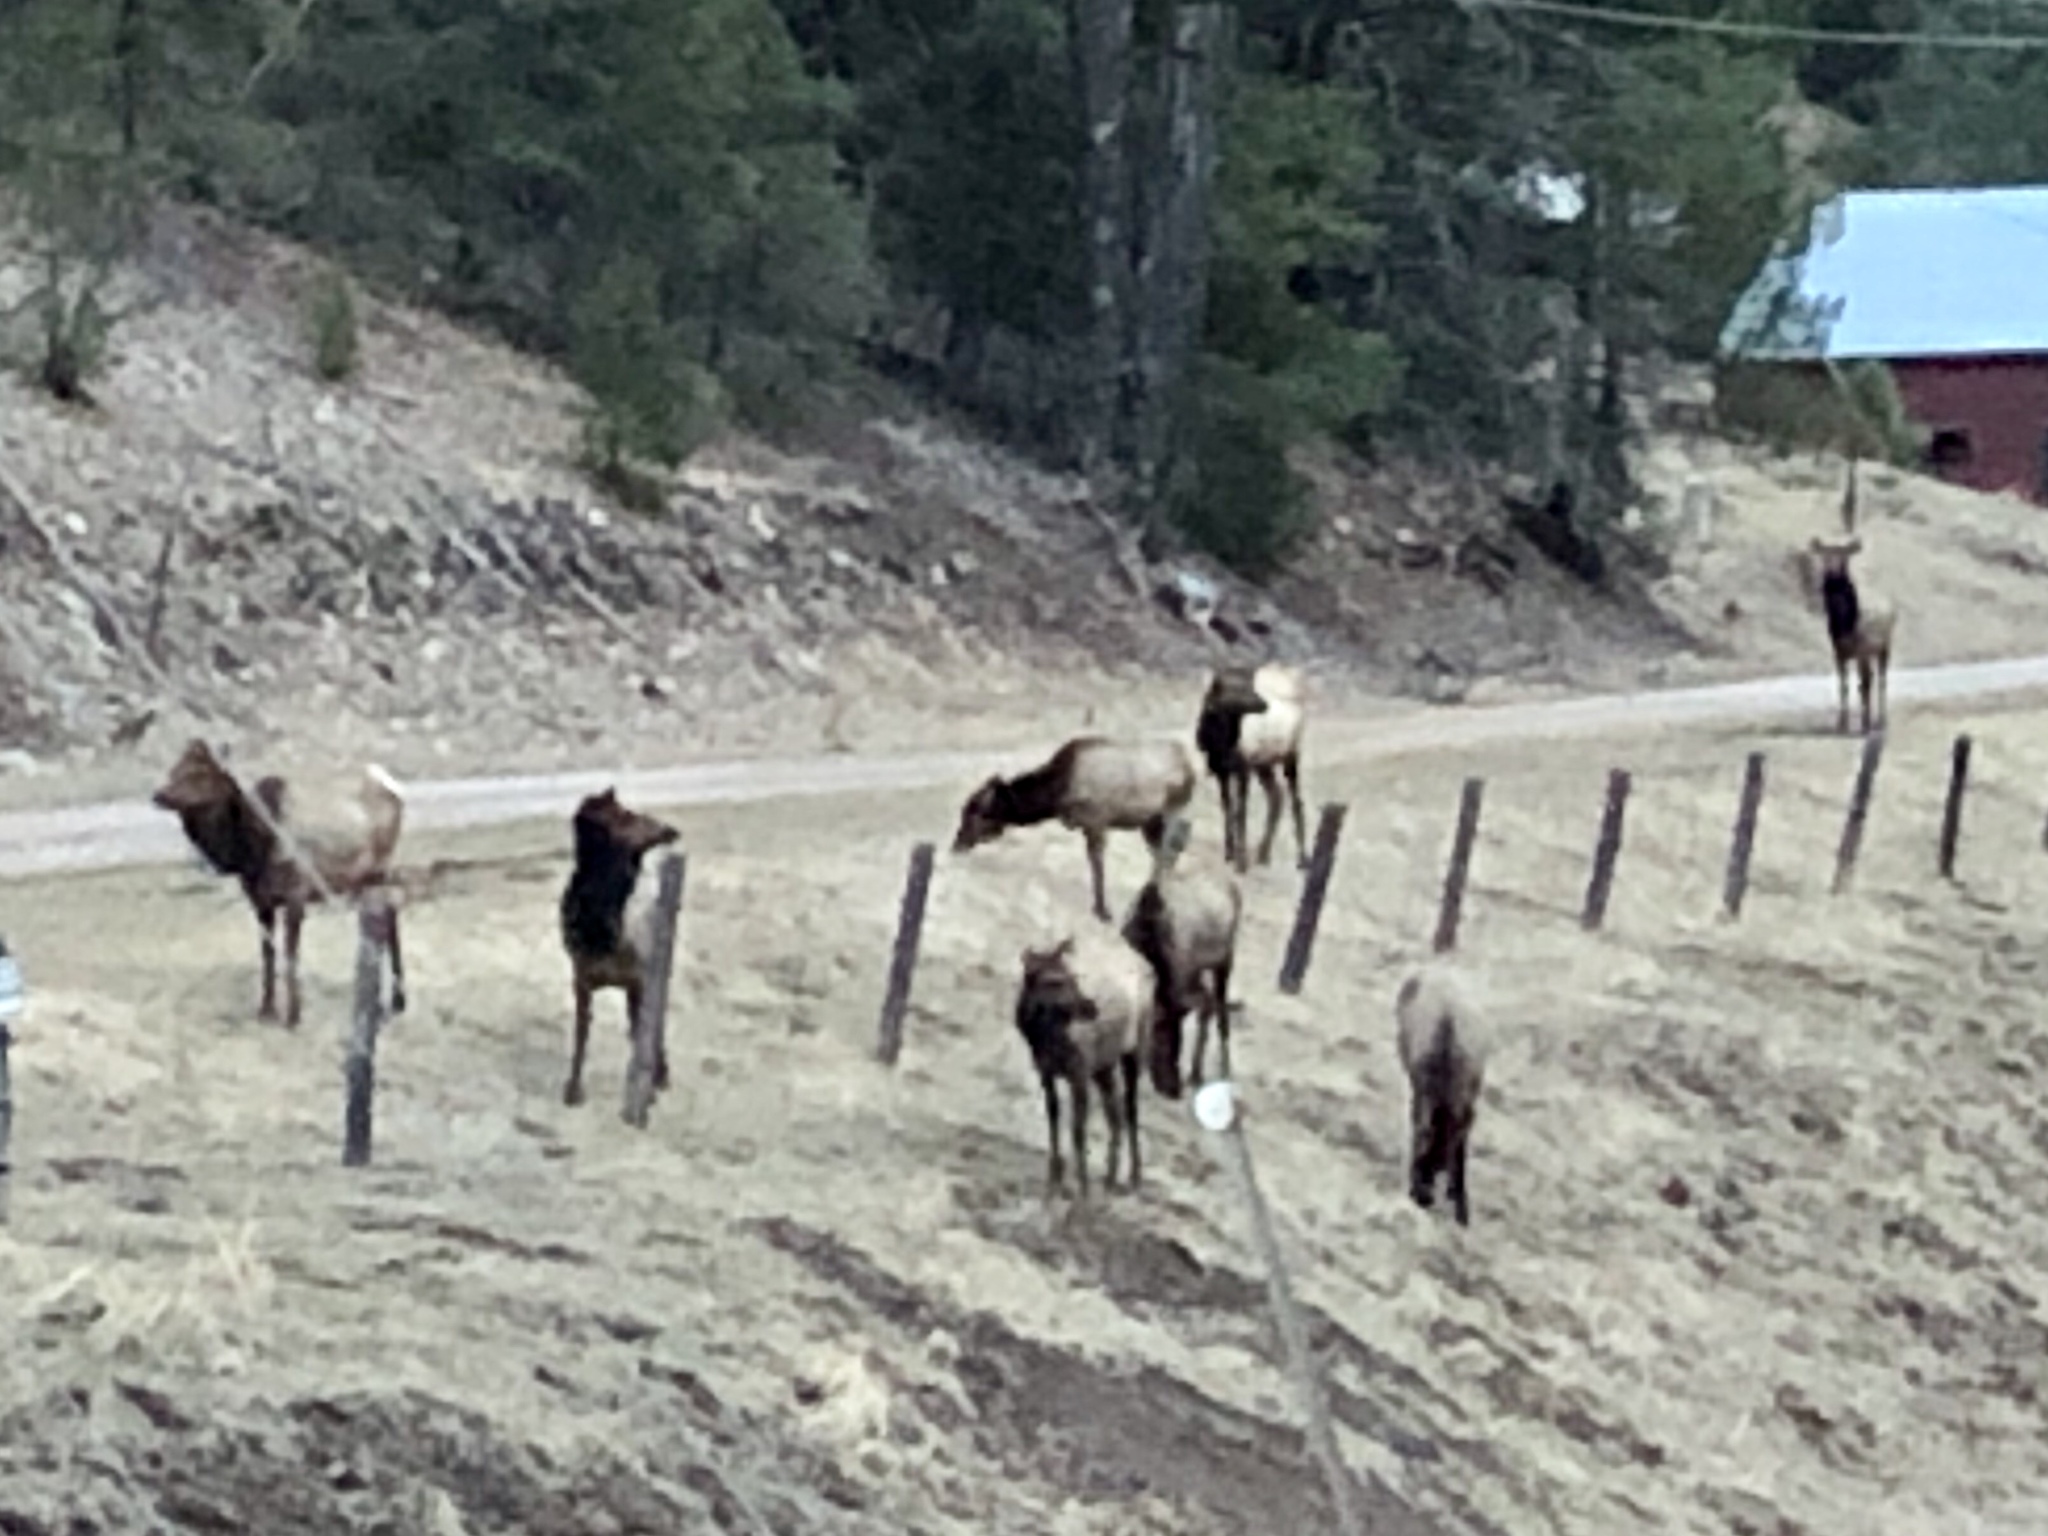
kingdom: Animalia
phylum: Chordata
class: Mammalia
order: Artiodactyla
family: Cervidae
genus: Cervus
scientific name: Cervus elaphus
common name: Red deer
